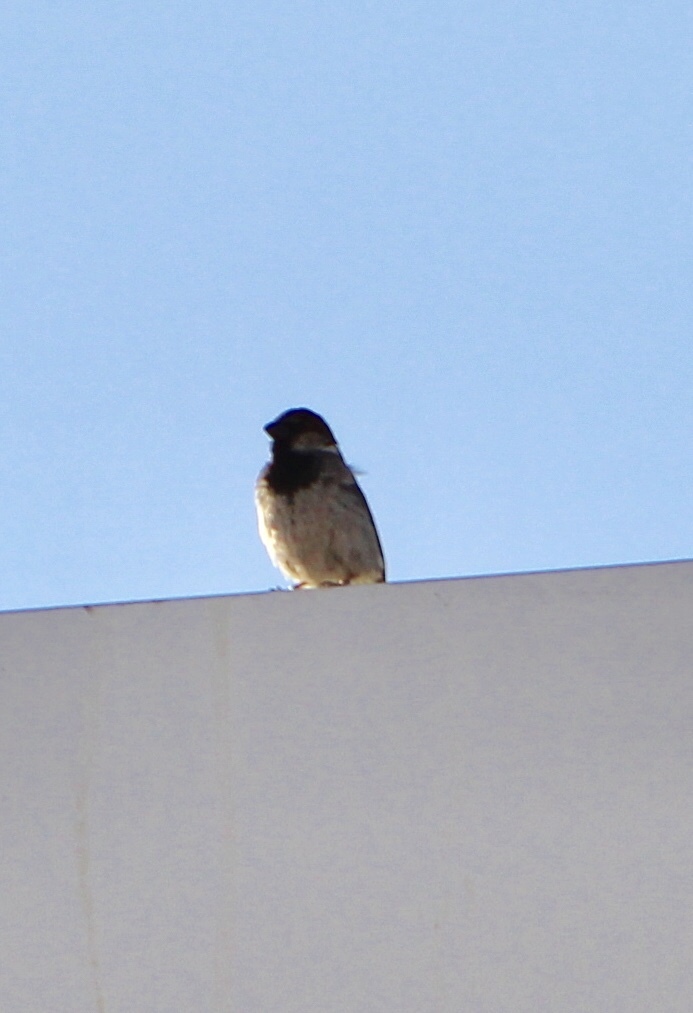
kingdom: Animalia
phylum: Chordata
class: Aves
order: Passeriformes
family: Passeridae
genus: Passer
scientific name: Passer domesticus
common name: House sparrow
